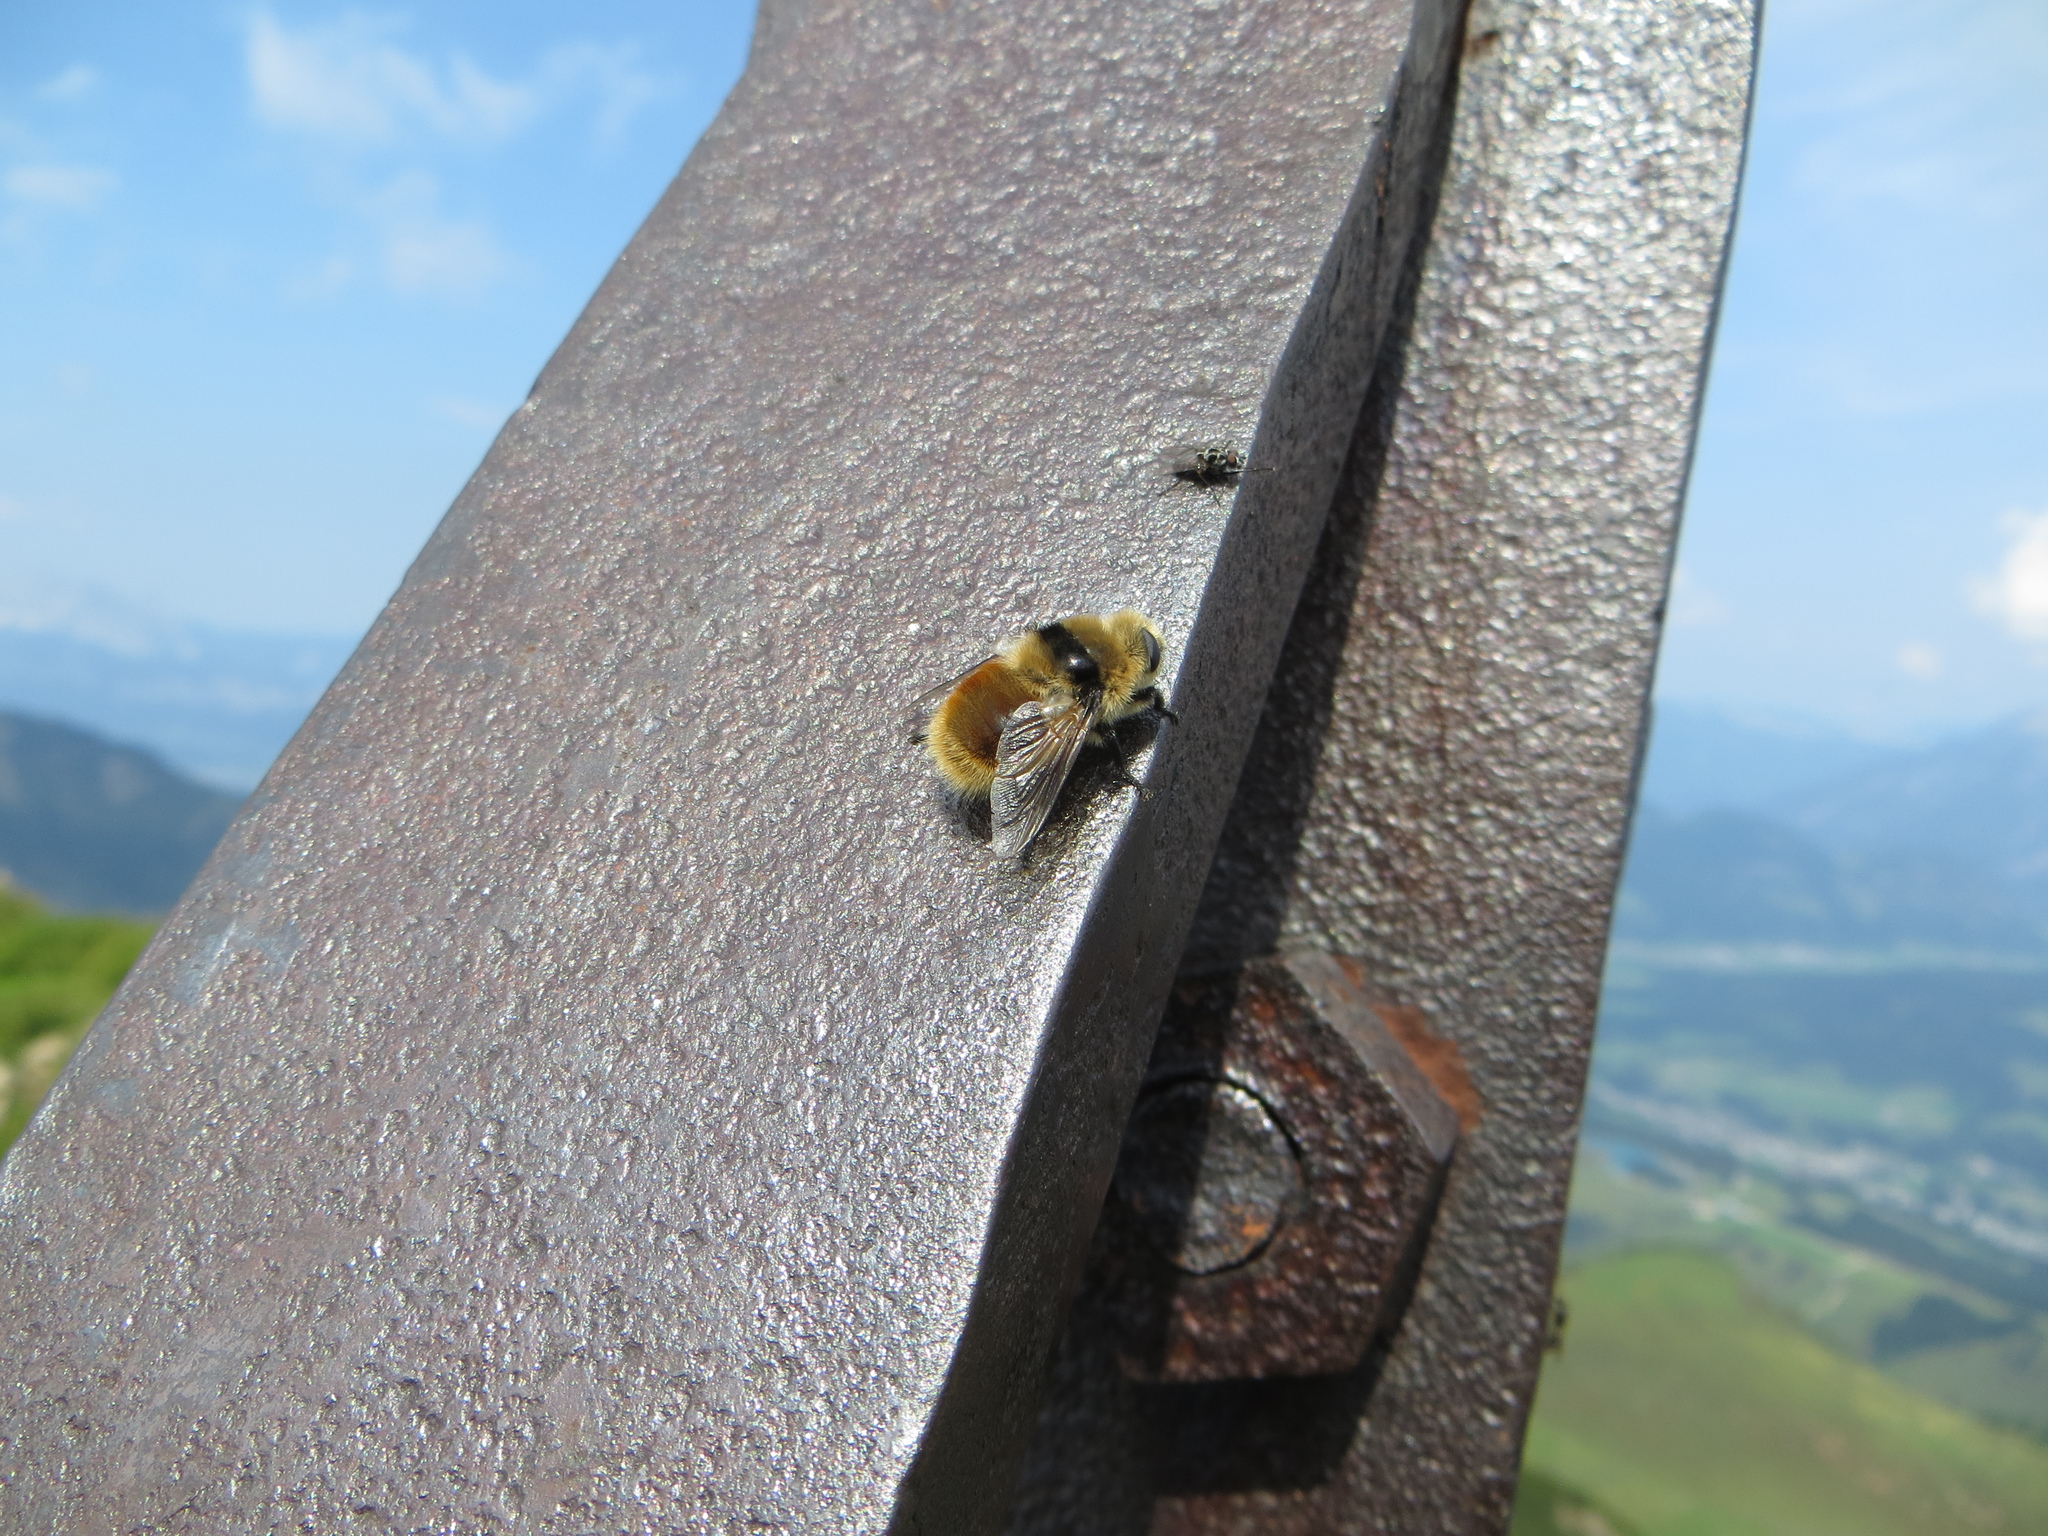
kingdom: Animalia
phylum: Arthropoda
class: Insecta
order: Diptera
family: Oestridae
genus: Cephenemyia
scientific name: Cephenemyia stimulator
